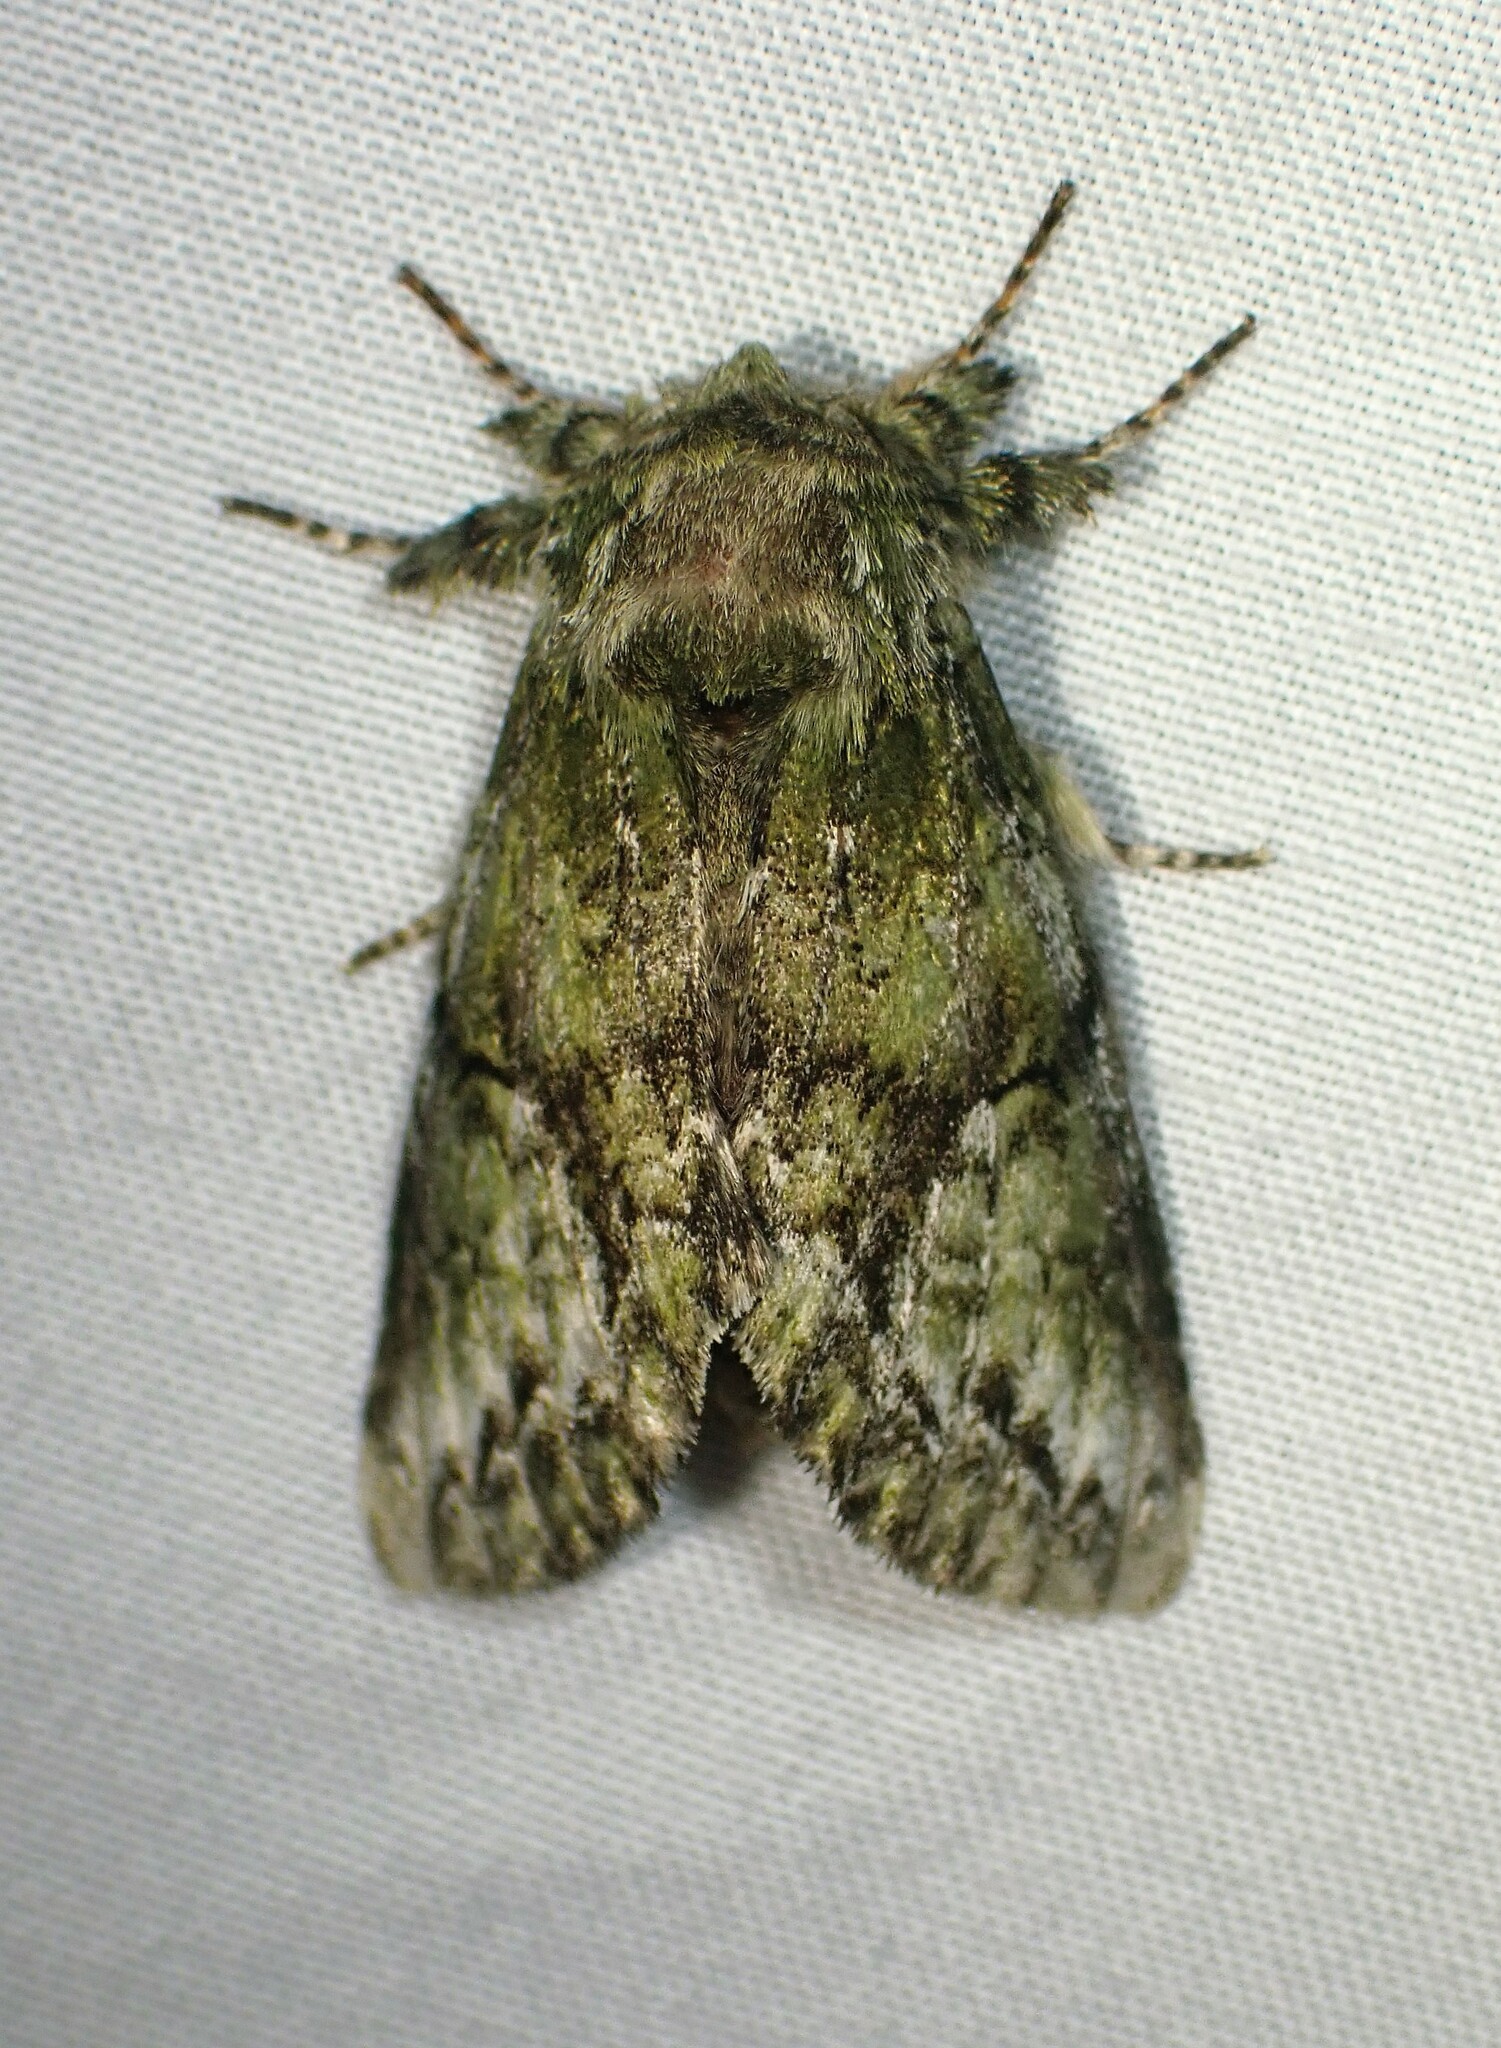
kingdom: Animalia
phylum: Arthropoda
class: Insecta
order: Lepidoptera
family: Notodontidae
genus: Heterocampa
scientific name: Heterocampa
